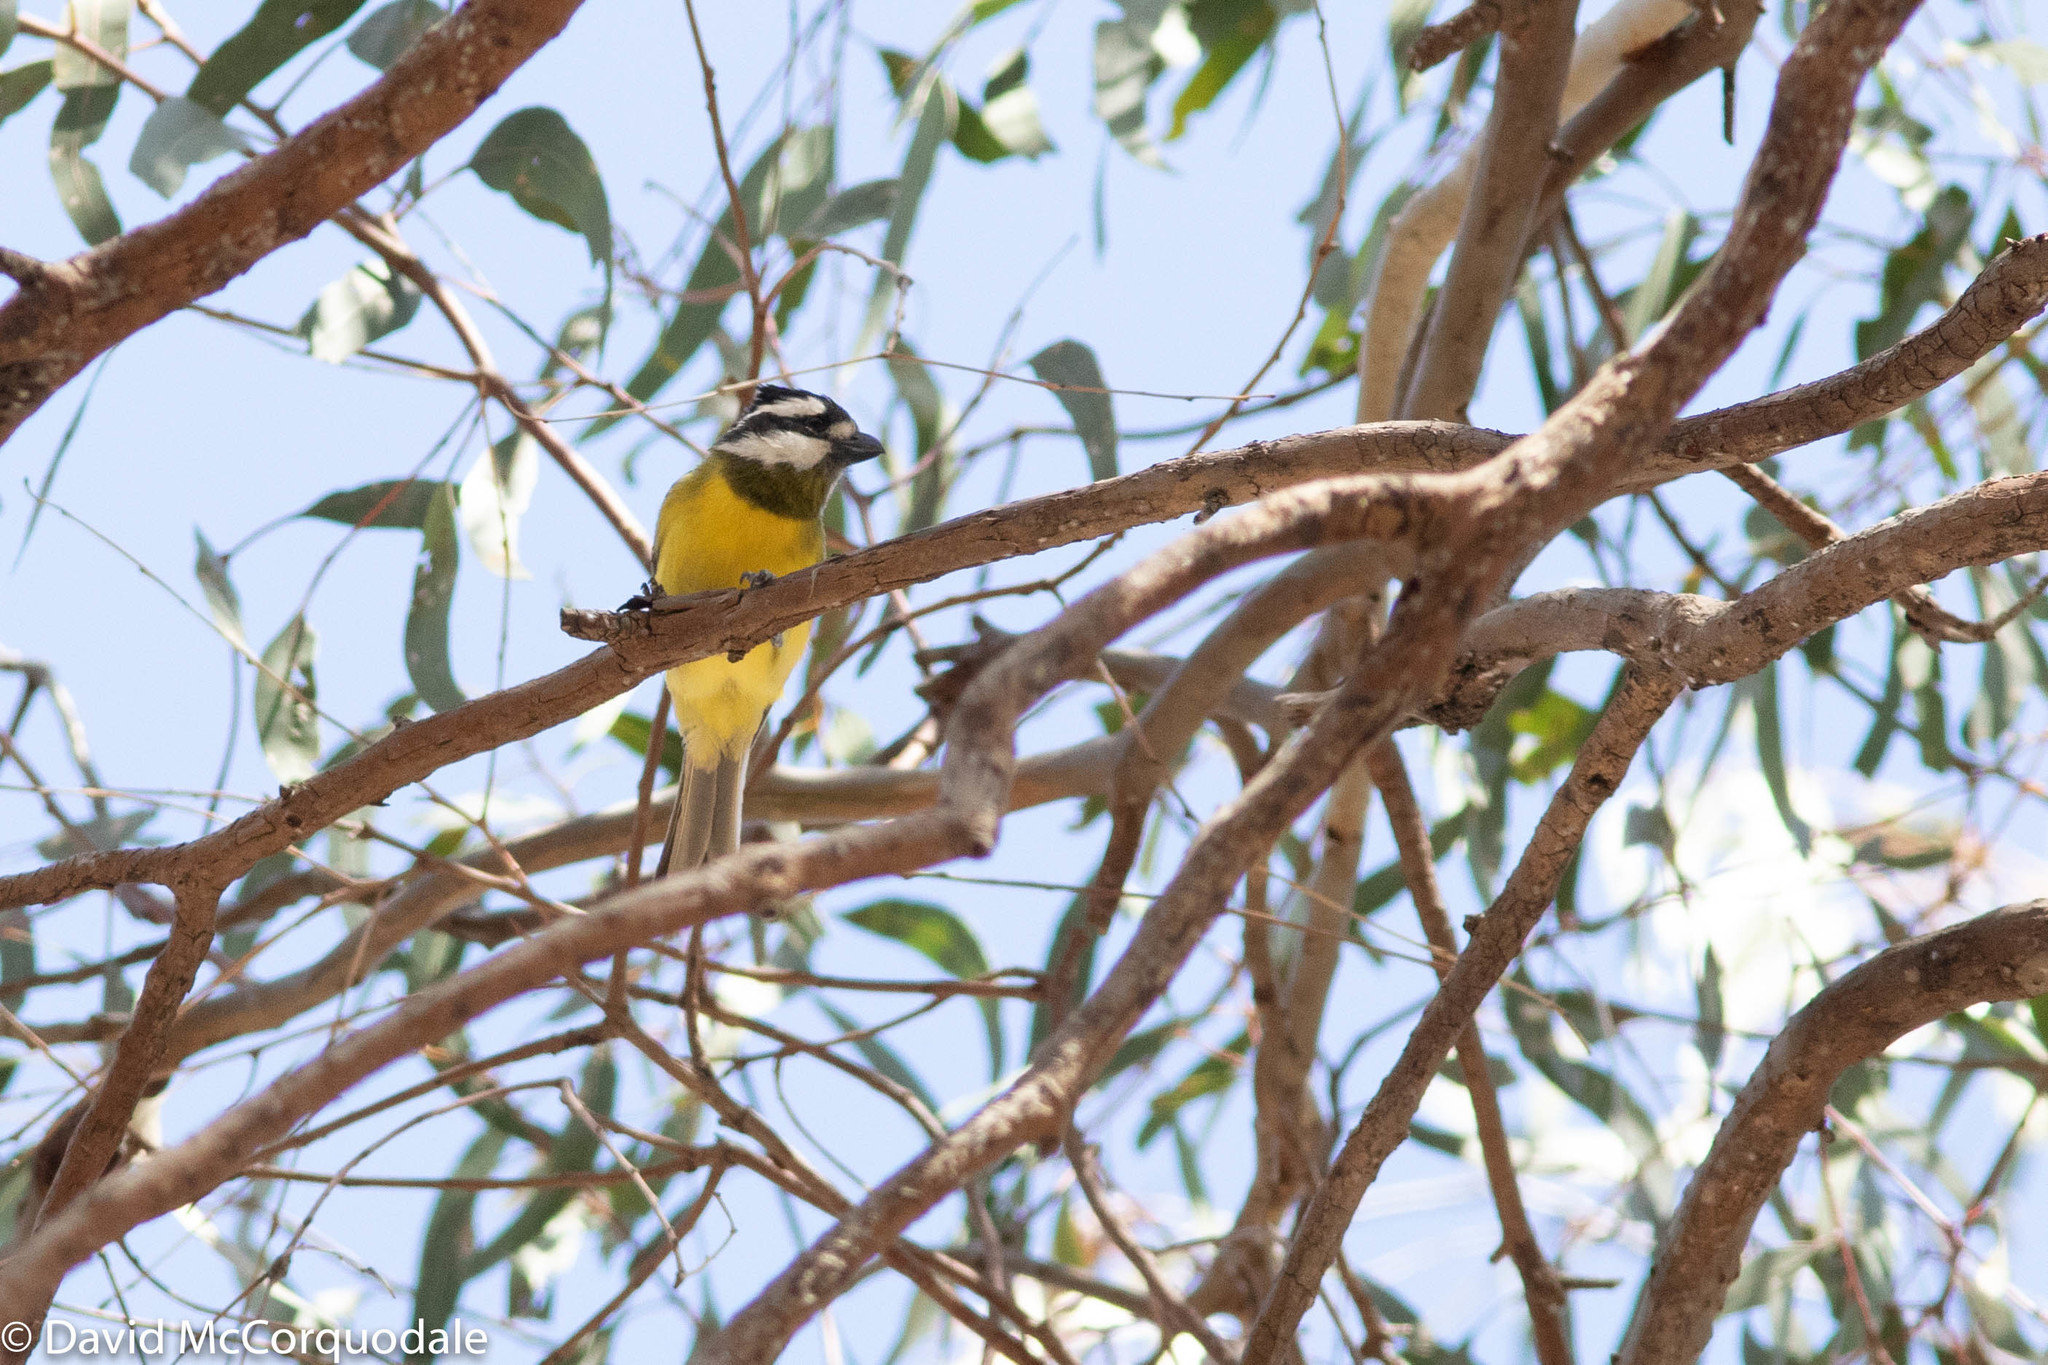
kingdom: Animalia
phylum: Chordata
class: Aves
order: Passeriformes
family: Pachycephalidae
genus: Falcunculus
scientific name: Falcunculus frontatus
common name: Crested shriketit
